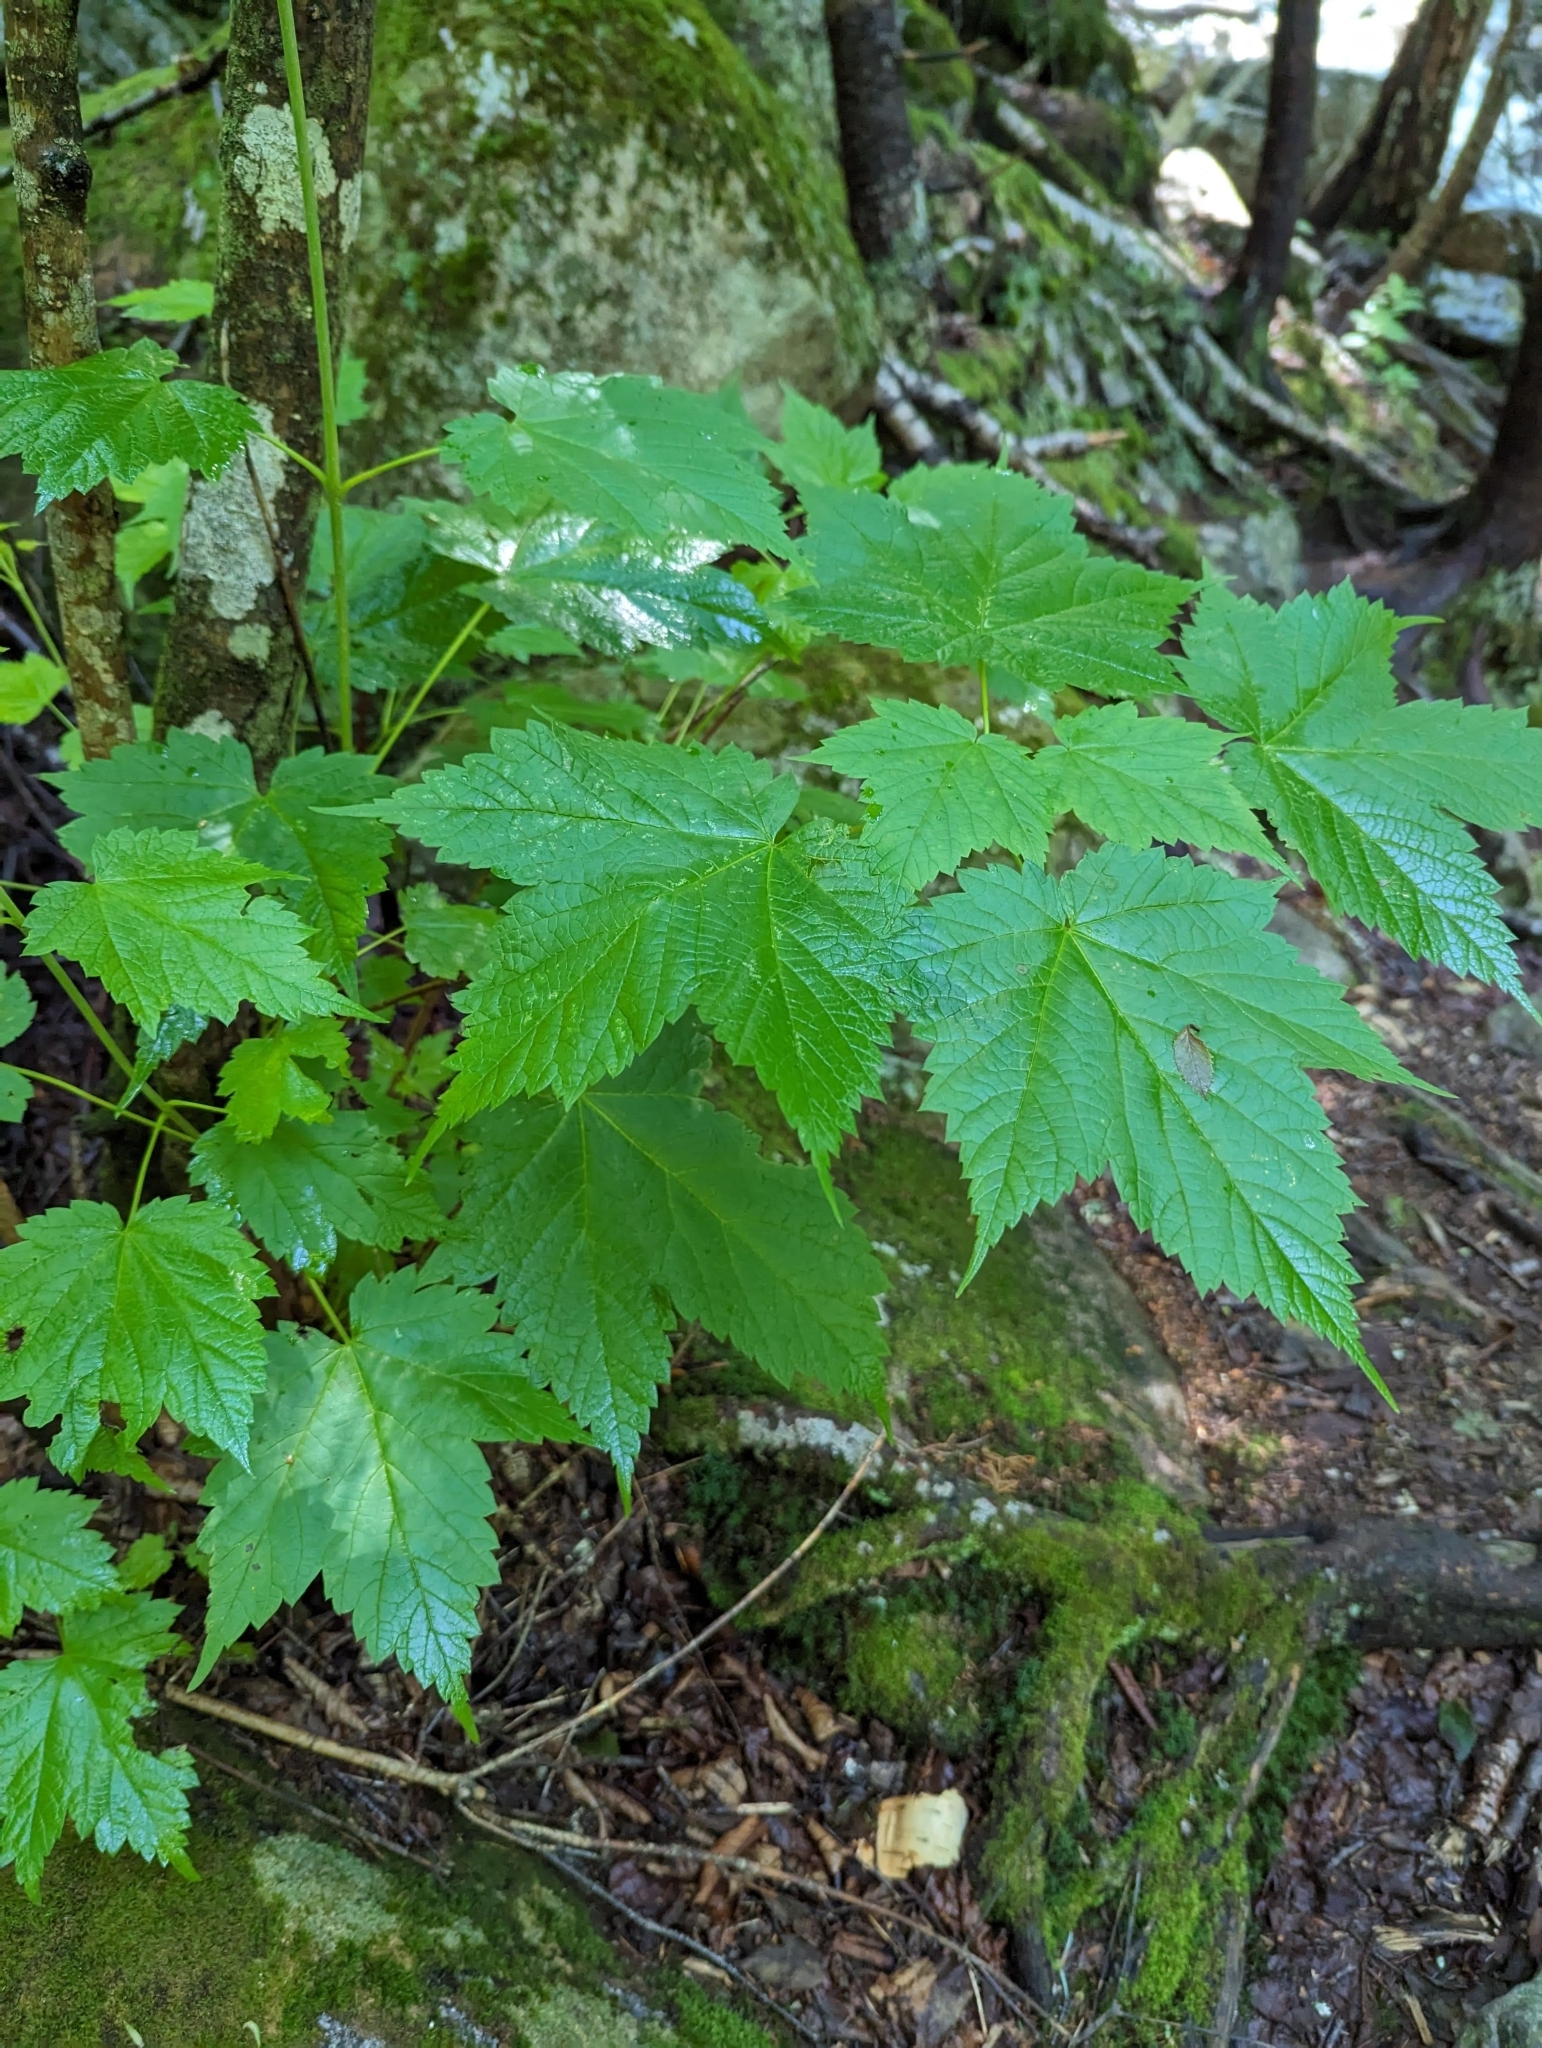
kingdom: Plantae
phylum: Tracheophyta
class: Magnoliopsida
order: Sapindales
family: Sapindaceae
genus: Acer
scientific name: Acer spicatum
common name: Mountain maple
